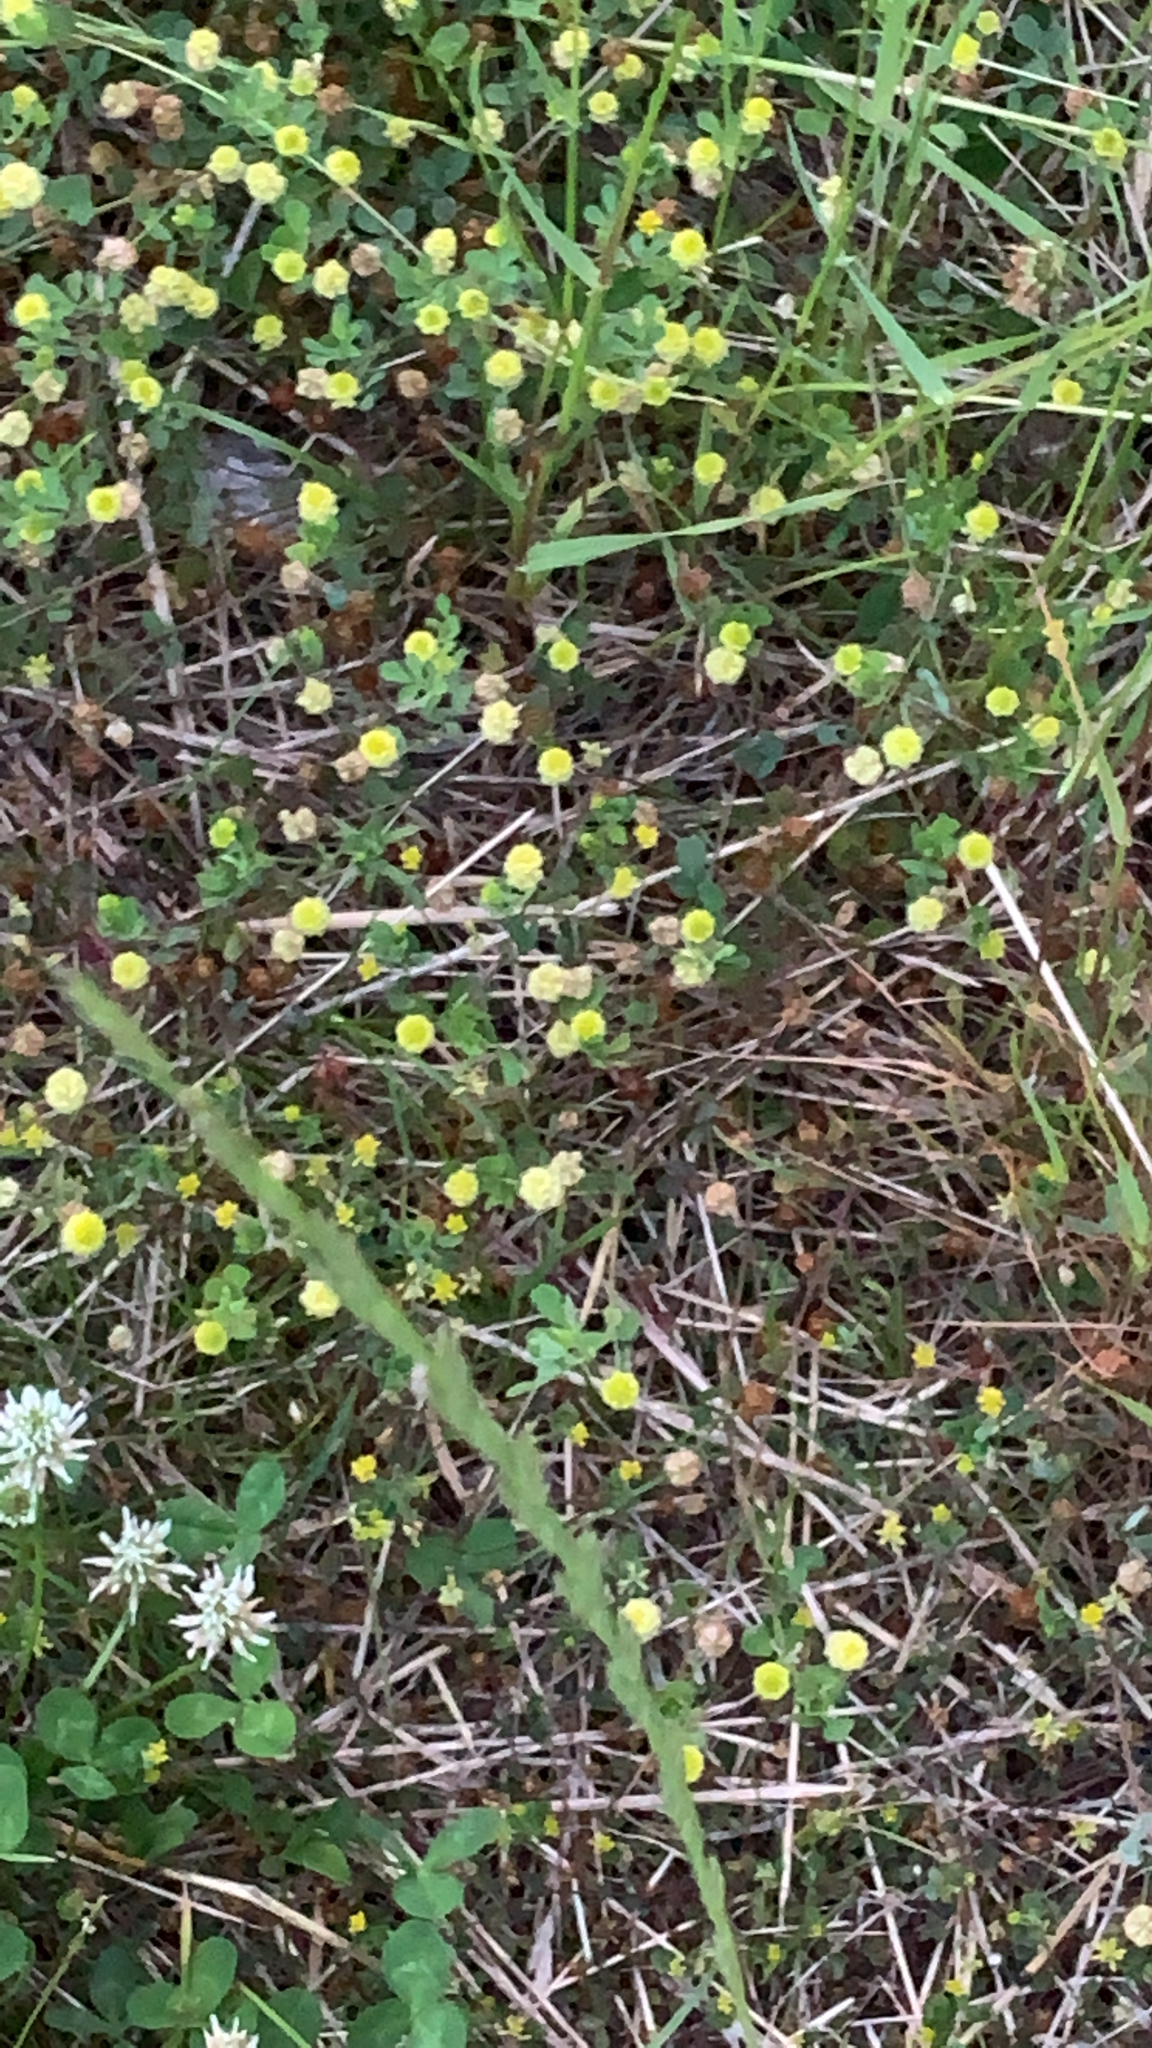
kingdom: Plantae
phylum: Tracheophyta
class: Magnoliopsida
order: Fabales
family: Fabaceae
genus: Trifolium
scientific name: Trifolium campestre
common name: Field clover
